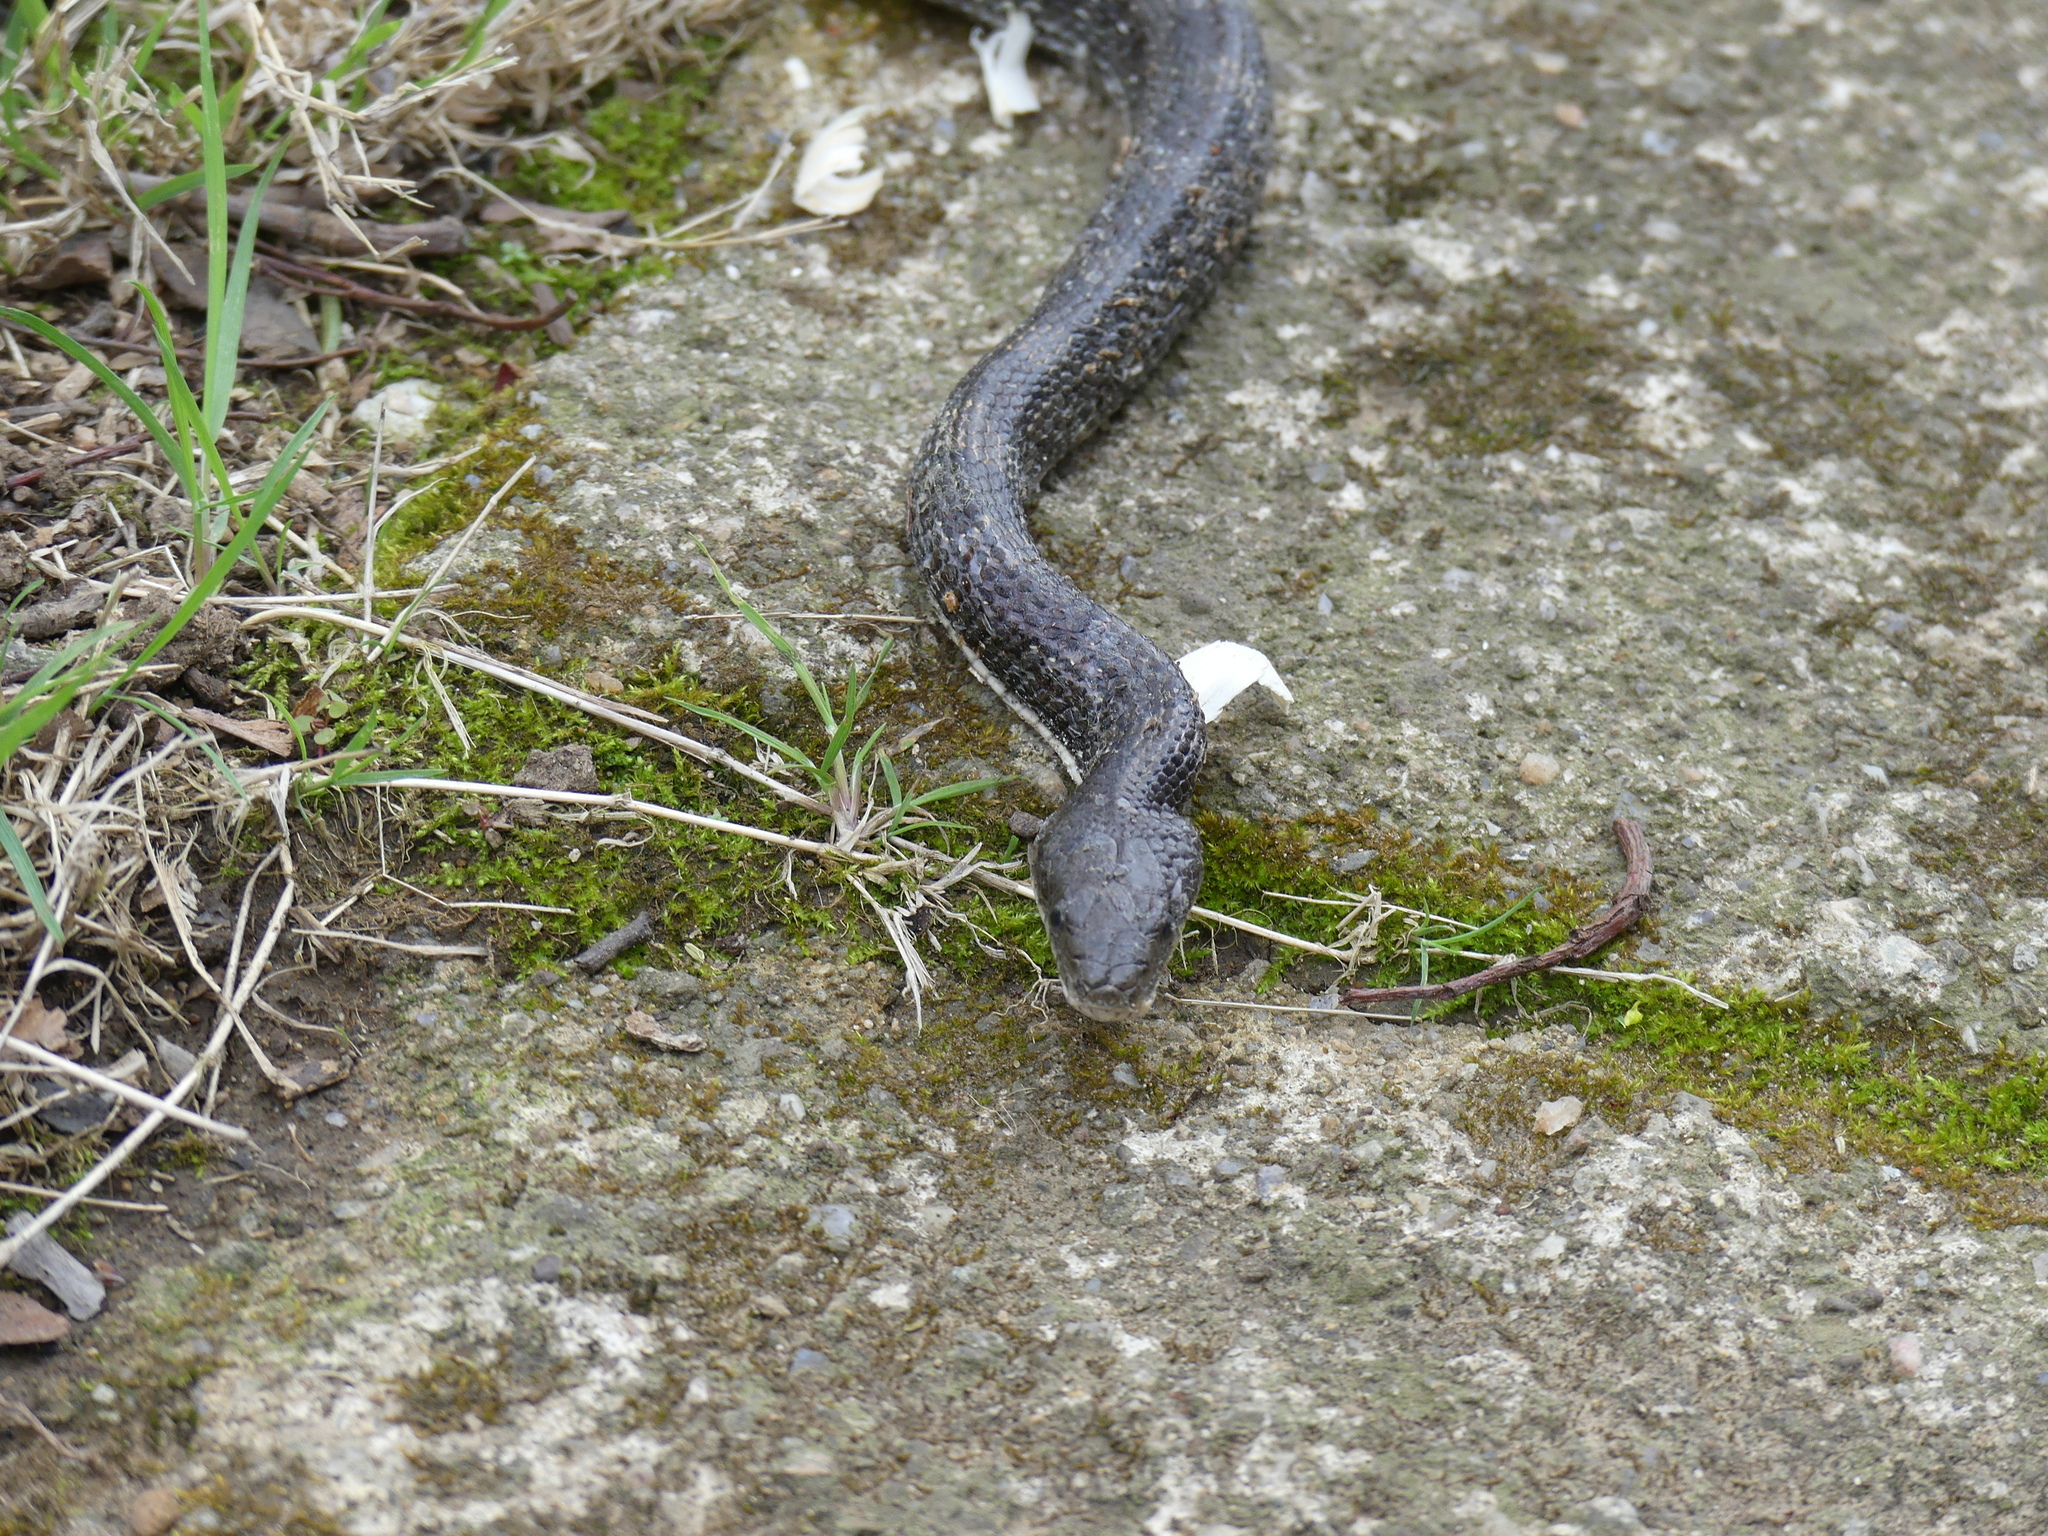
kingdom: Animalia
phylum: Chordata
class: Squamata
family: Colubridae
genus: Pantherophis
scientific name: Pantherophis alleghaniensis
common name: Eastern rat snake
